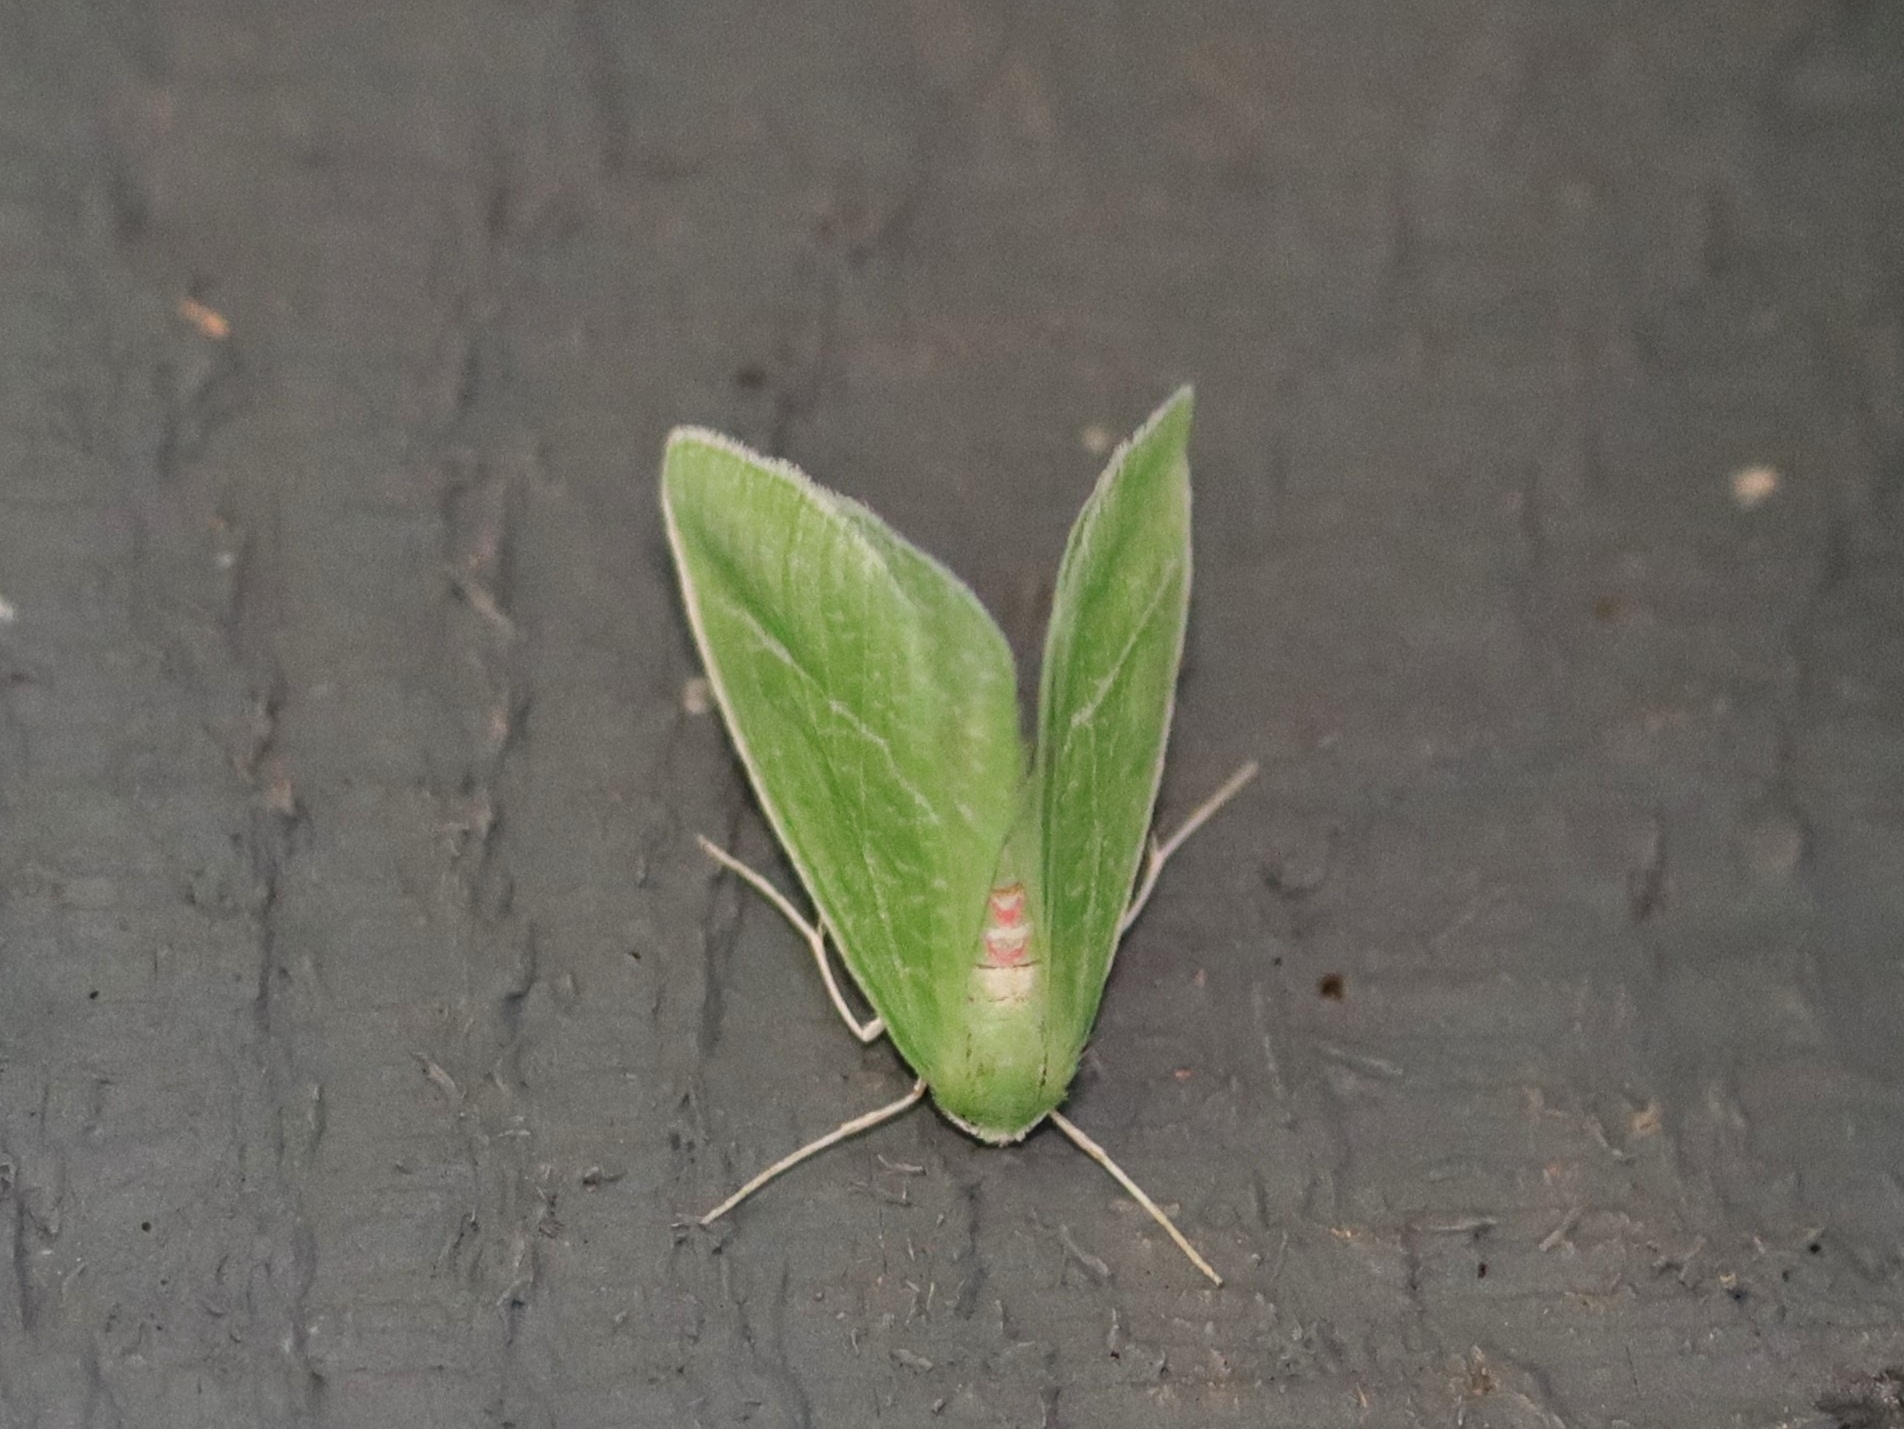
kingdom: Animalia
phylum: Arthropoda
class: Insecta
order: Lepidoptera
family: Geometridae
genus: Chlorosea
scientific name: Chlorosea banksaria
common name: Bank's emerald moth
